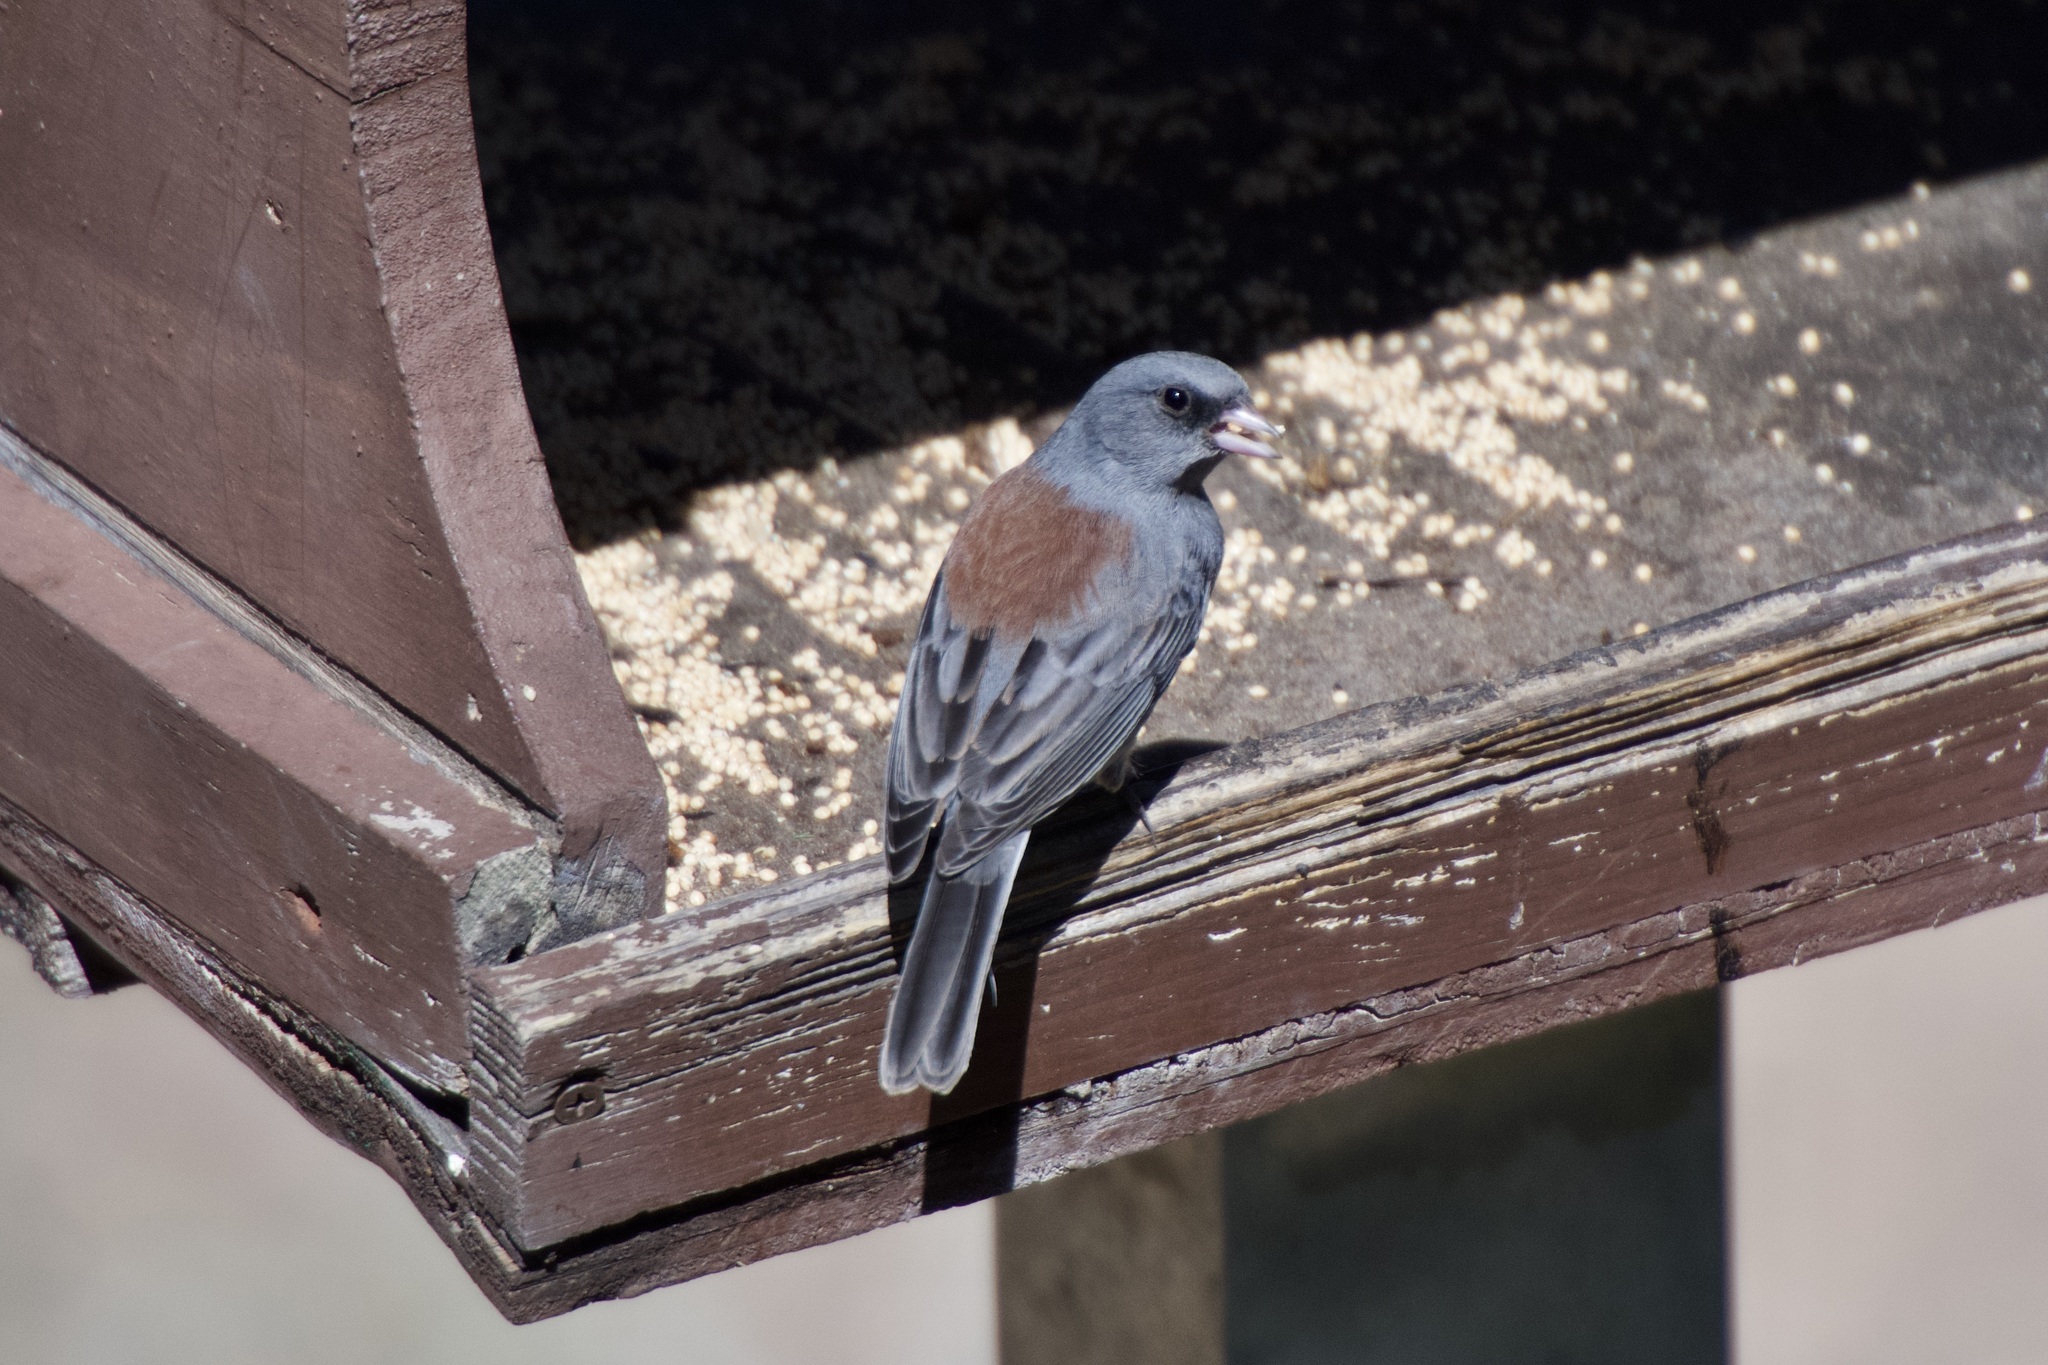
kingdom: Animalia
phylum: Chordata
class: Aves
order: Passeriformes
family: Passerellidae
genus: Junco
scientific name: Junco hyemalis
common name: Dark-eyed junco
